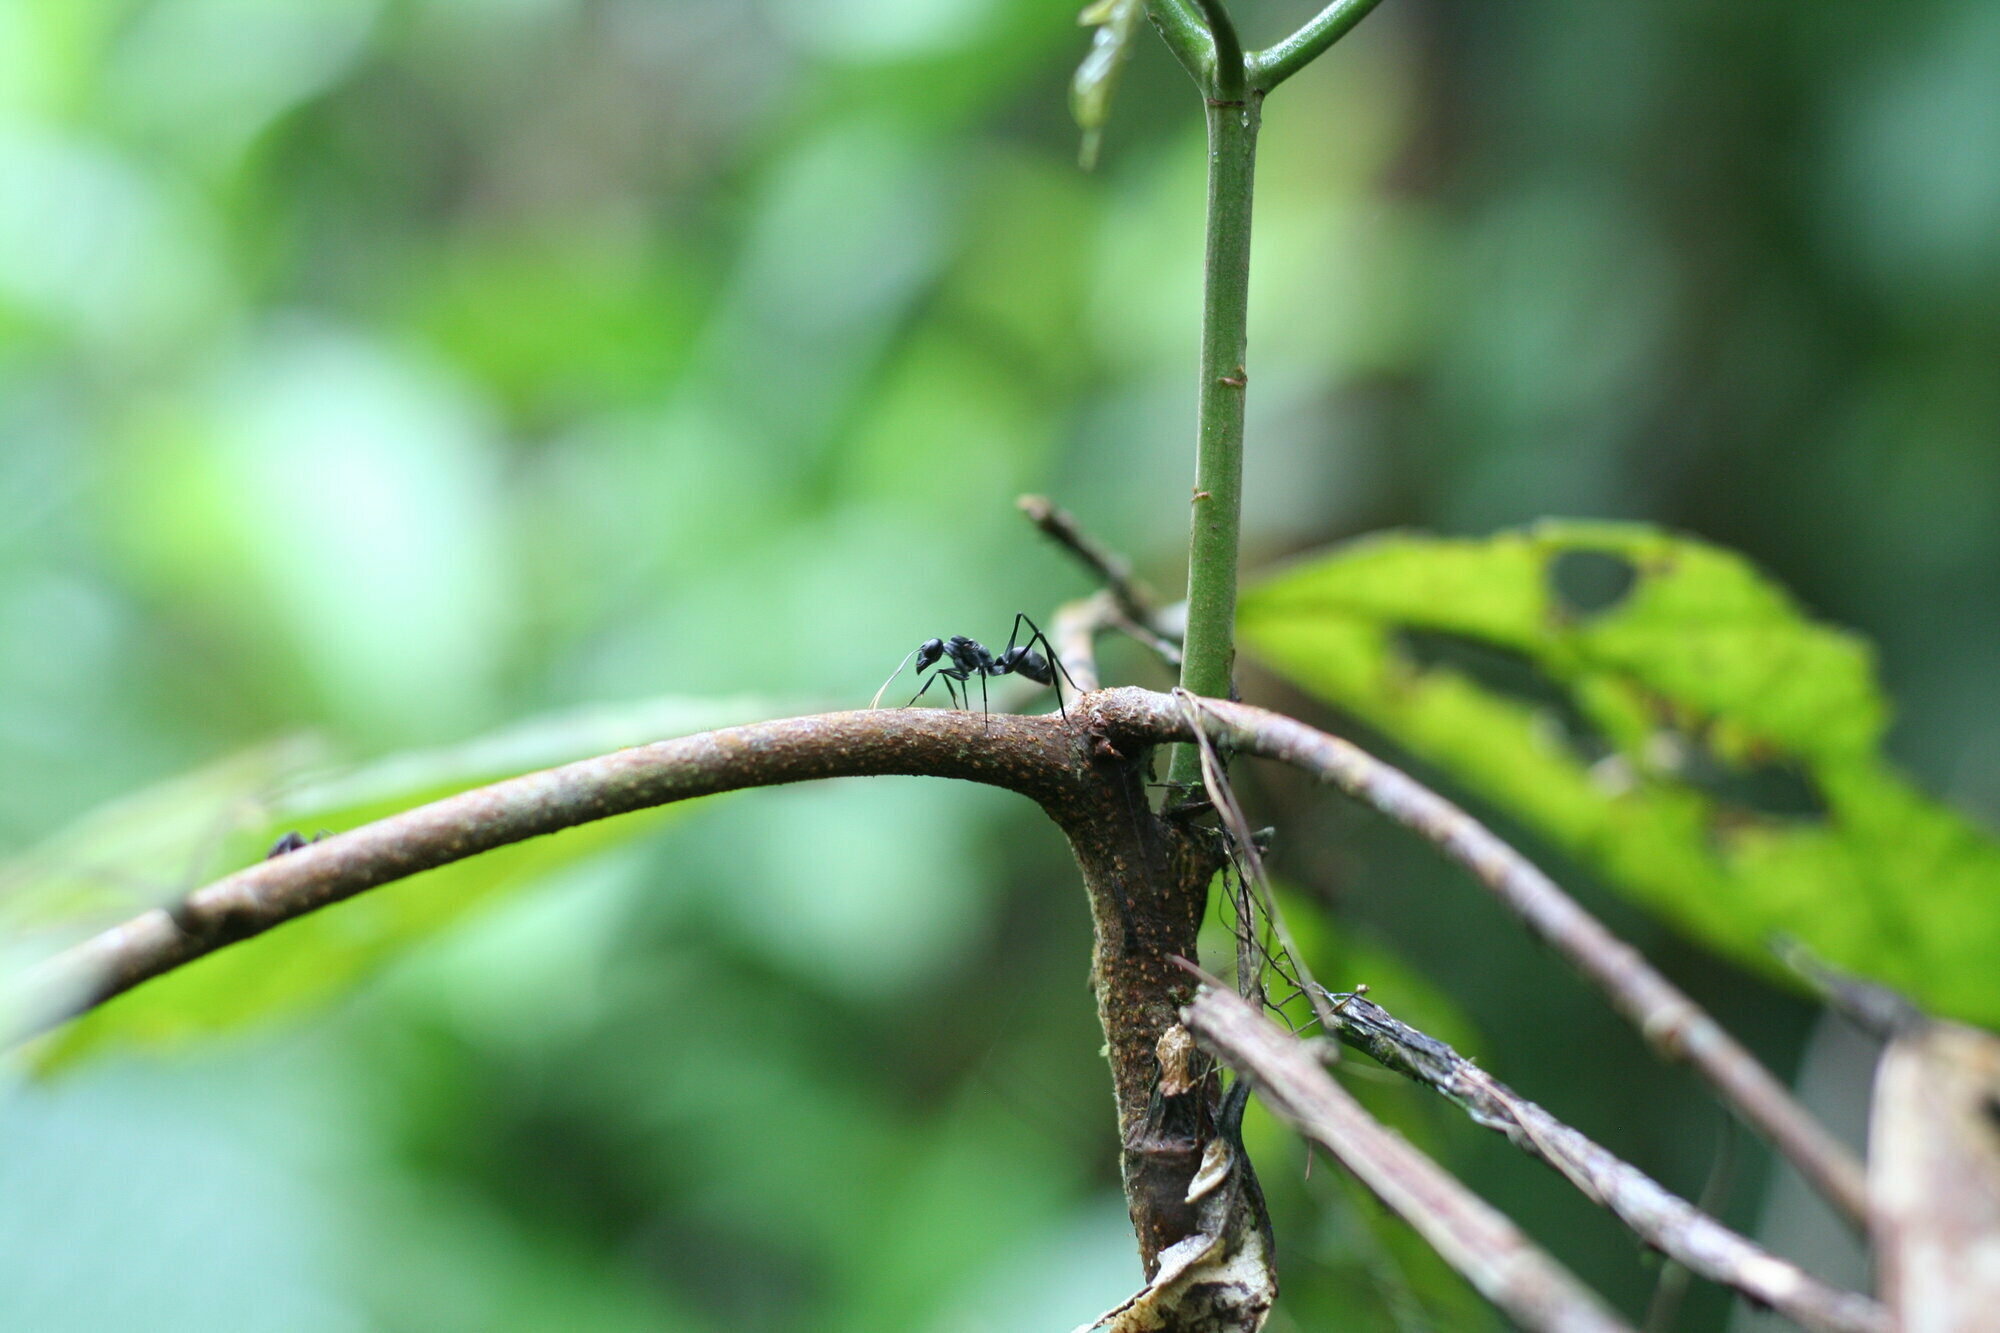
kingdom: Animalia
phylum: Arthropoda
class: Insecta
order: Hymenoptera
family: Formicidae
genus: Gigantiops
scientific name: Gigantiops destructor
